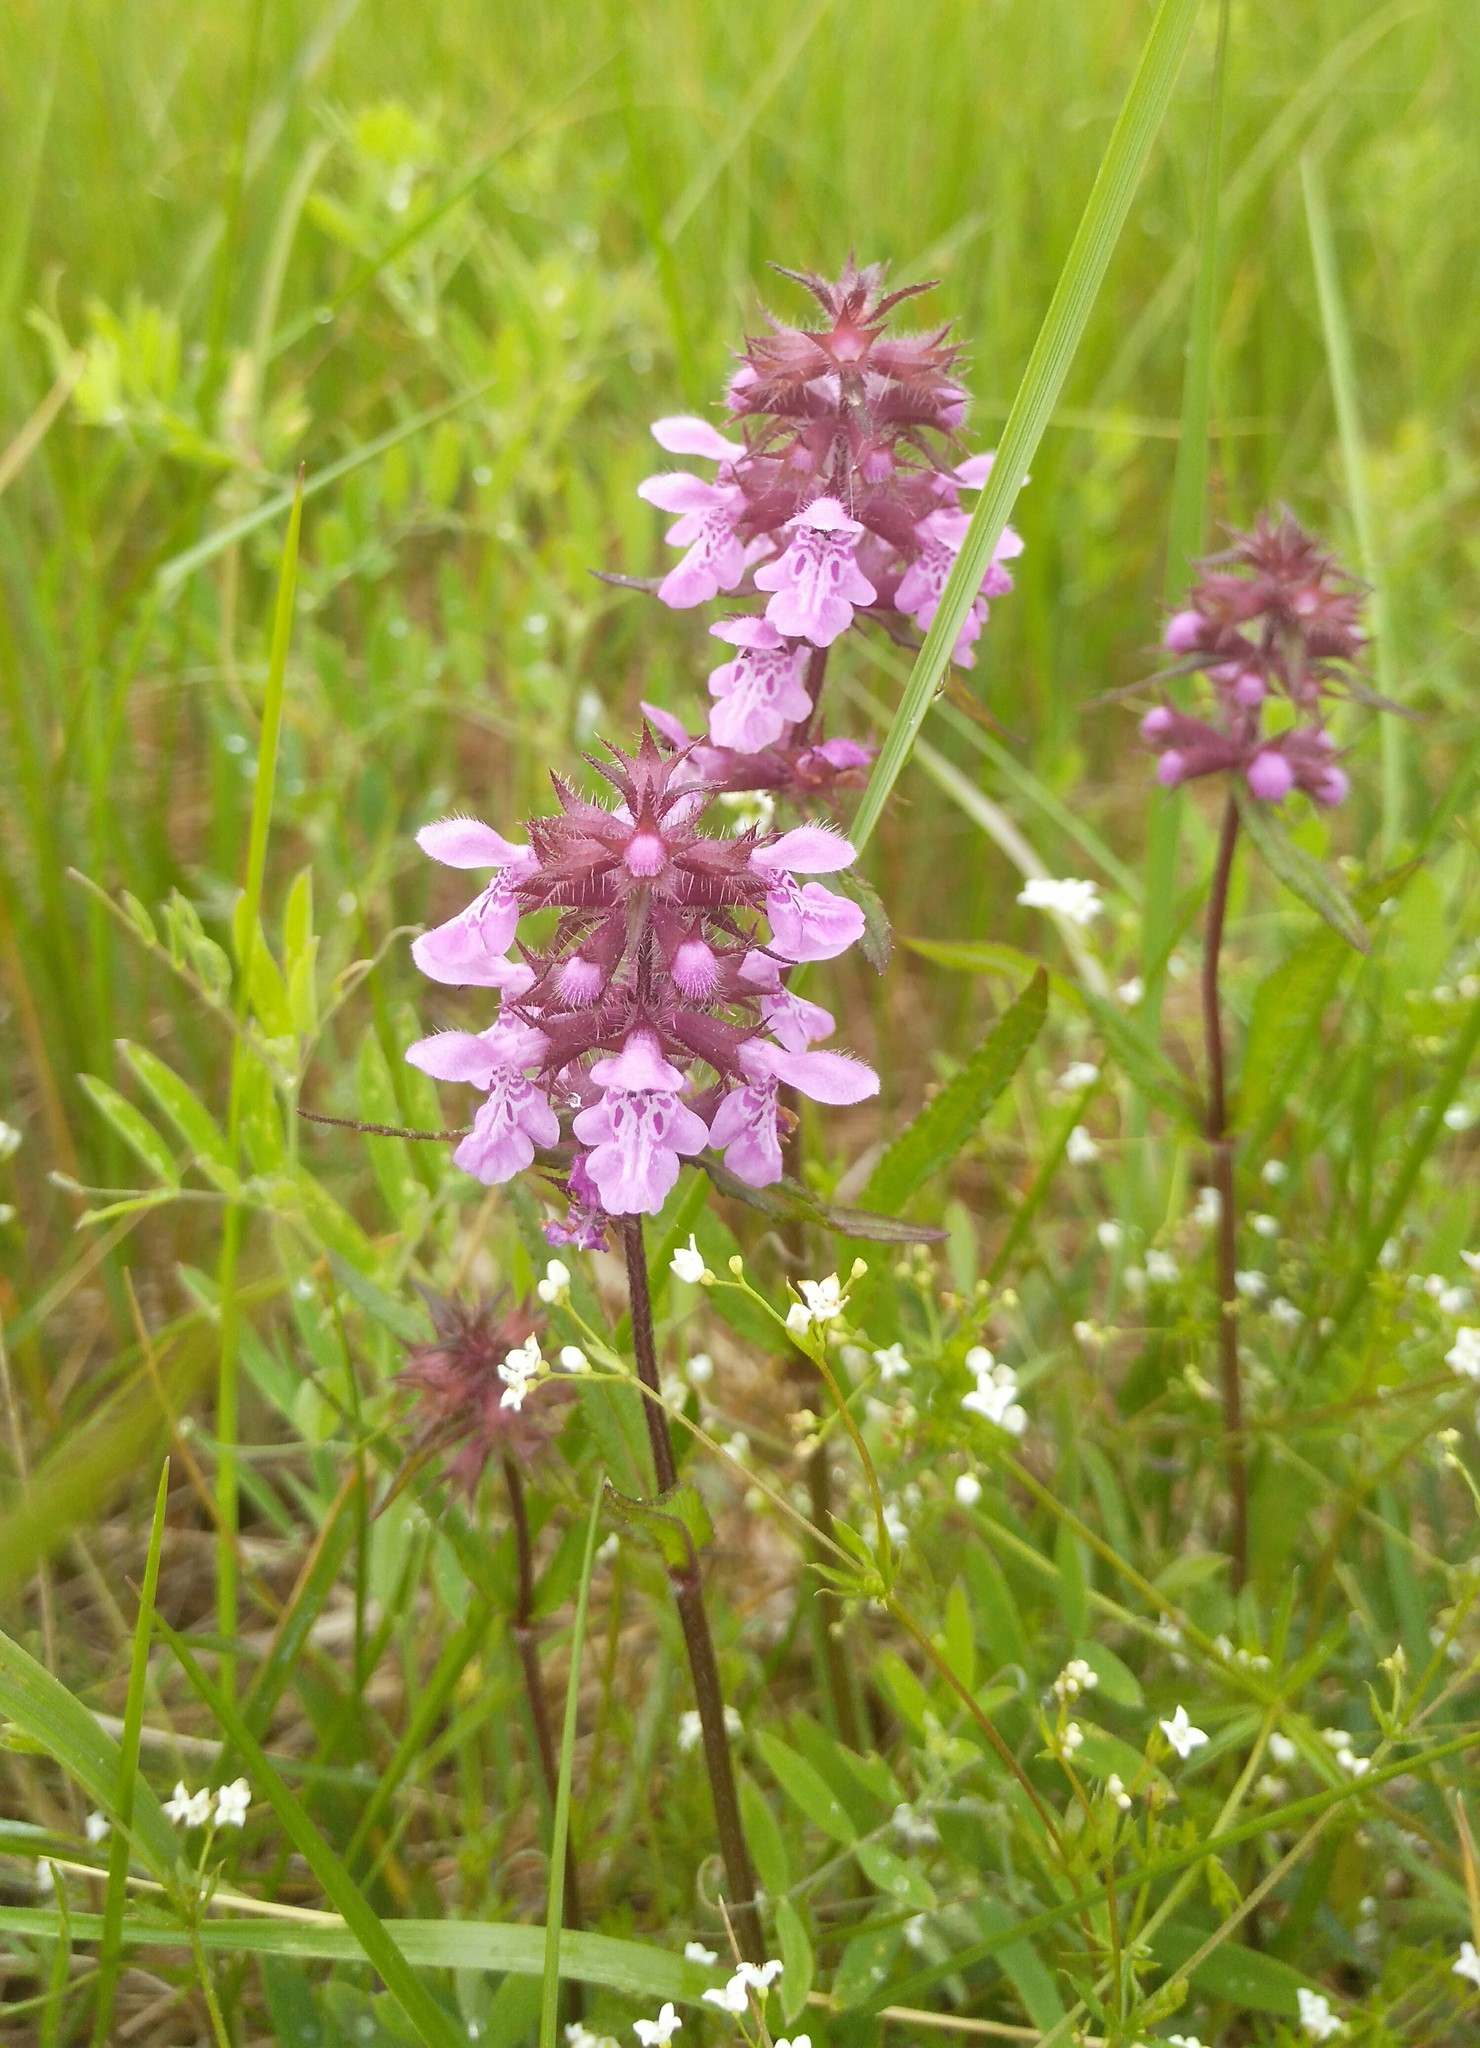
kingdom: Plantae
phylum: Tracheophyta
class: Magnoliopsida
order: Lamiales
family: Lamiaceae
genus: Stachys
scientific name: Stachys aspera
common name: Hyssopleaf hedgenettle
